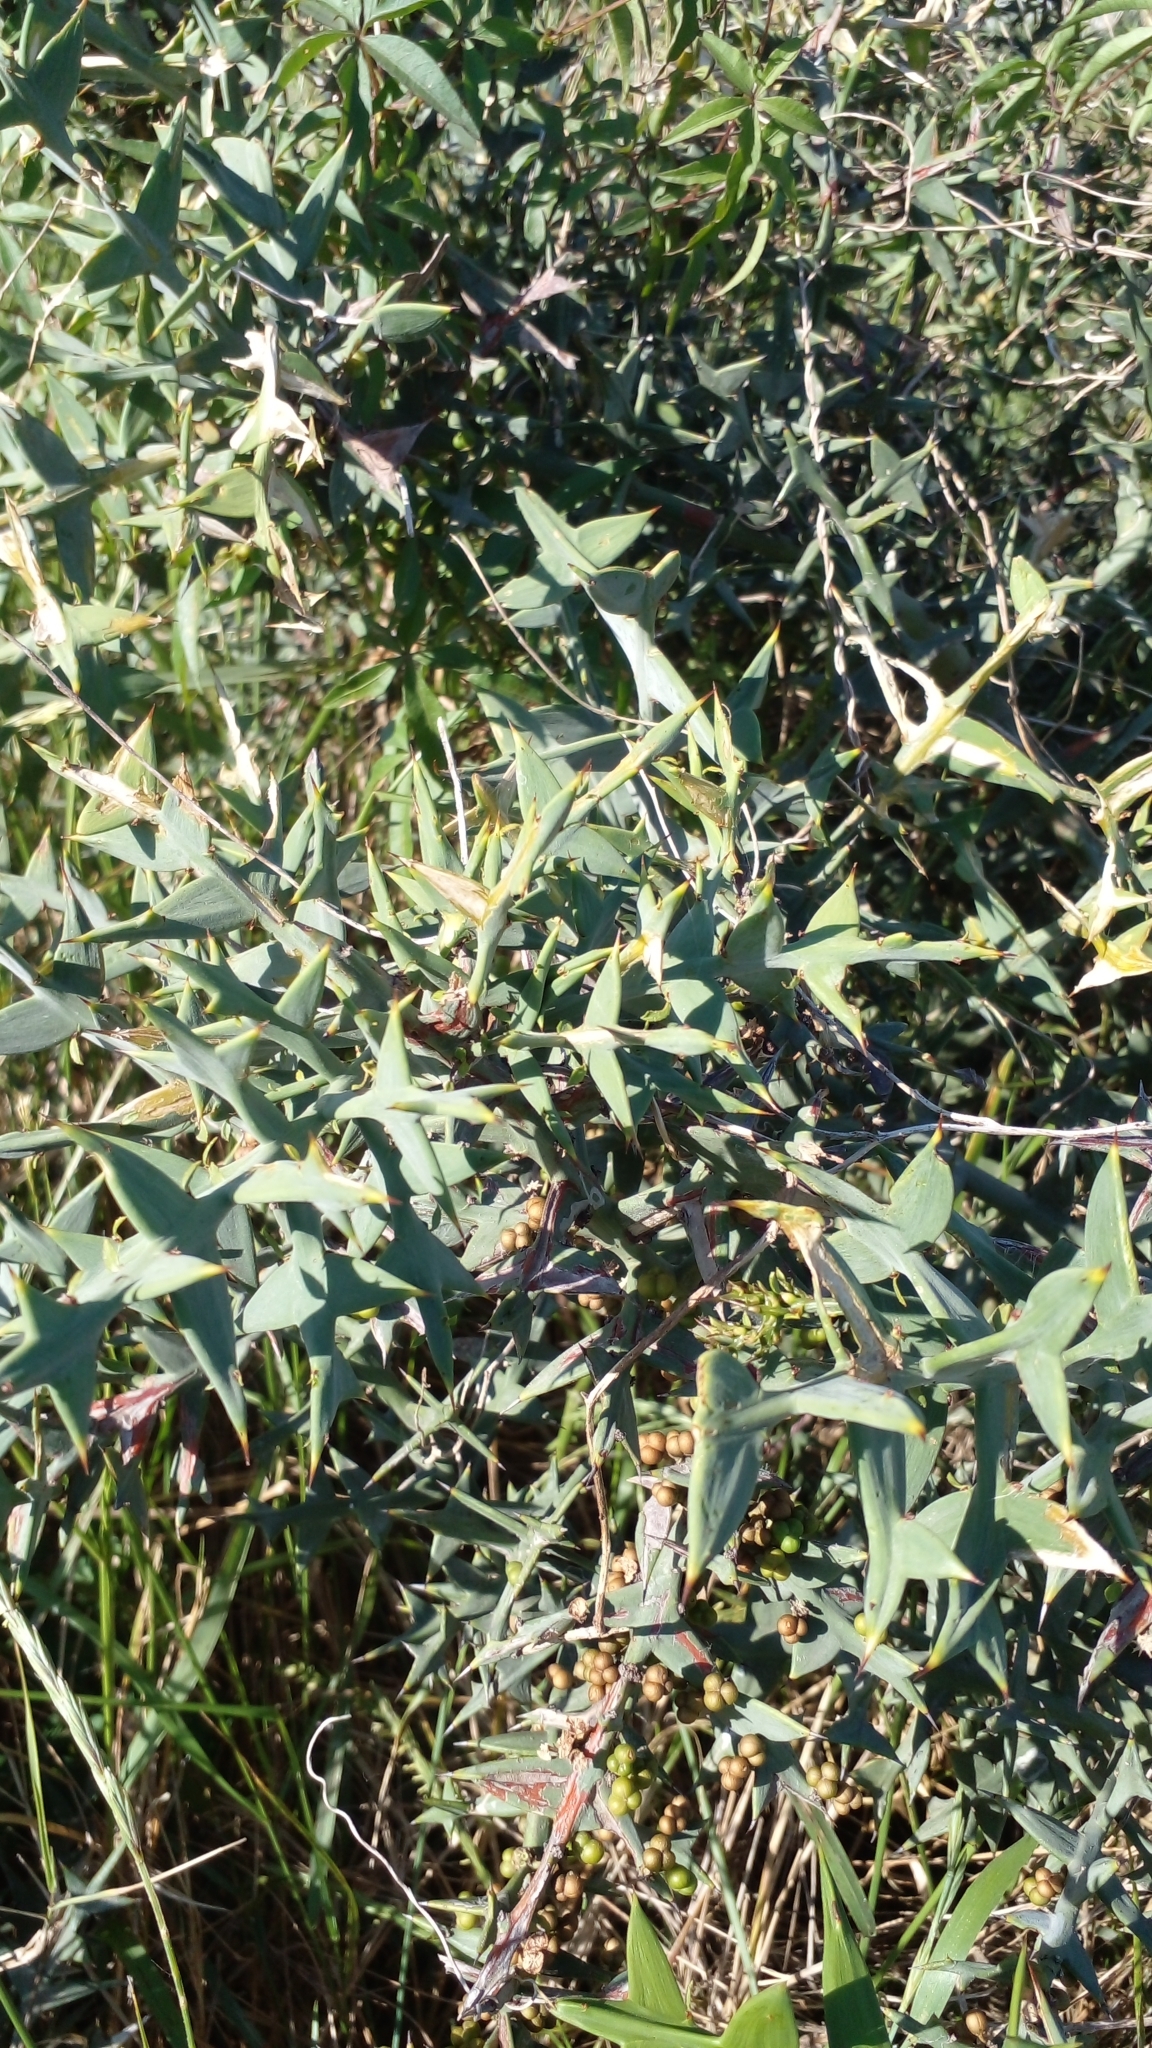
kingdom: Plantae
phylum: Tracheophyta
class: Magnoliopsida
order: Rosales
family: Rhamnaceae
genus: Colletia
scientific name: Colletia paradoxa
